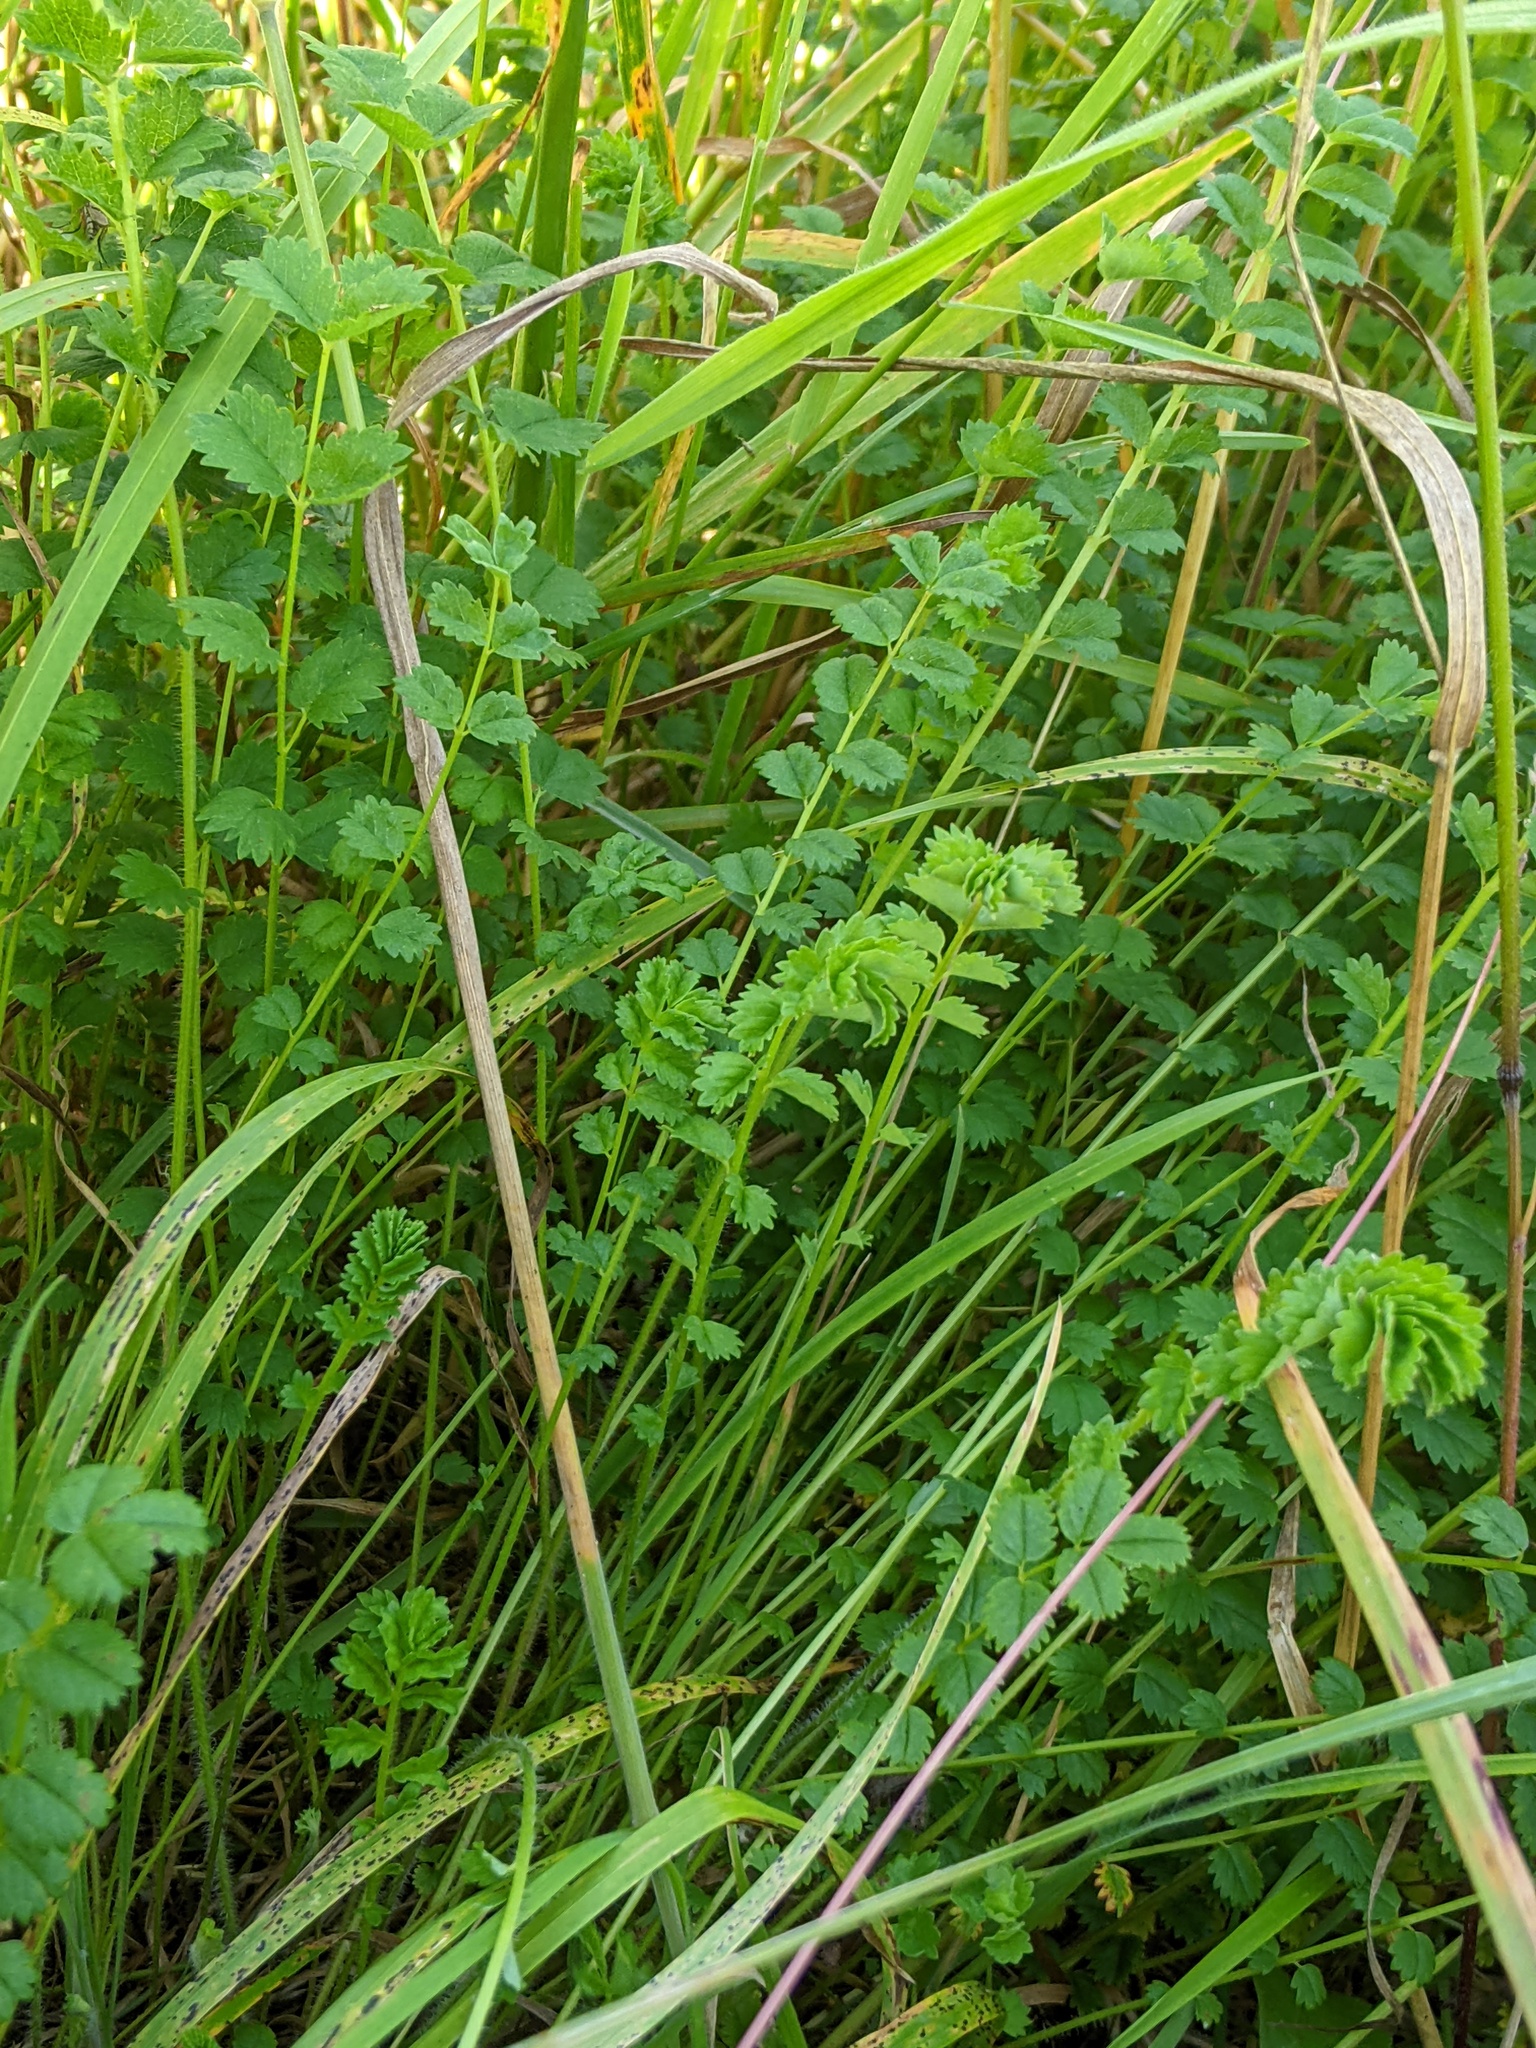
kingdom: Plantae
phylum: Tracheophyta
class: Magnoliopsida
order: Rosales
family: Rosaceae
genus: Poterium
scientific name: Poterium sanguisorba
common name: Salad burnet
